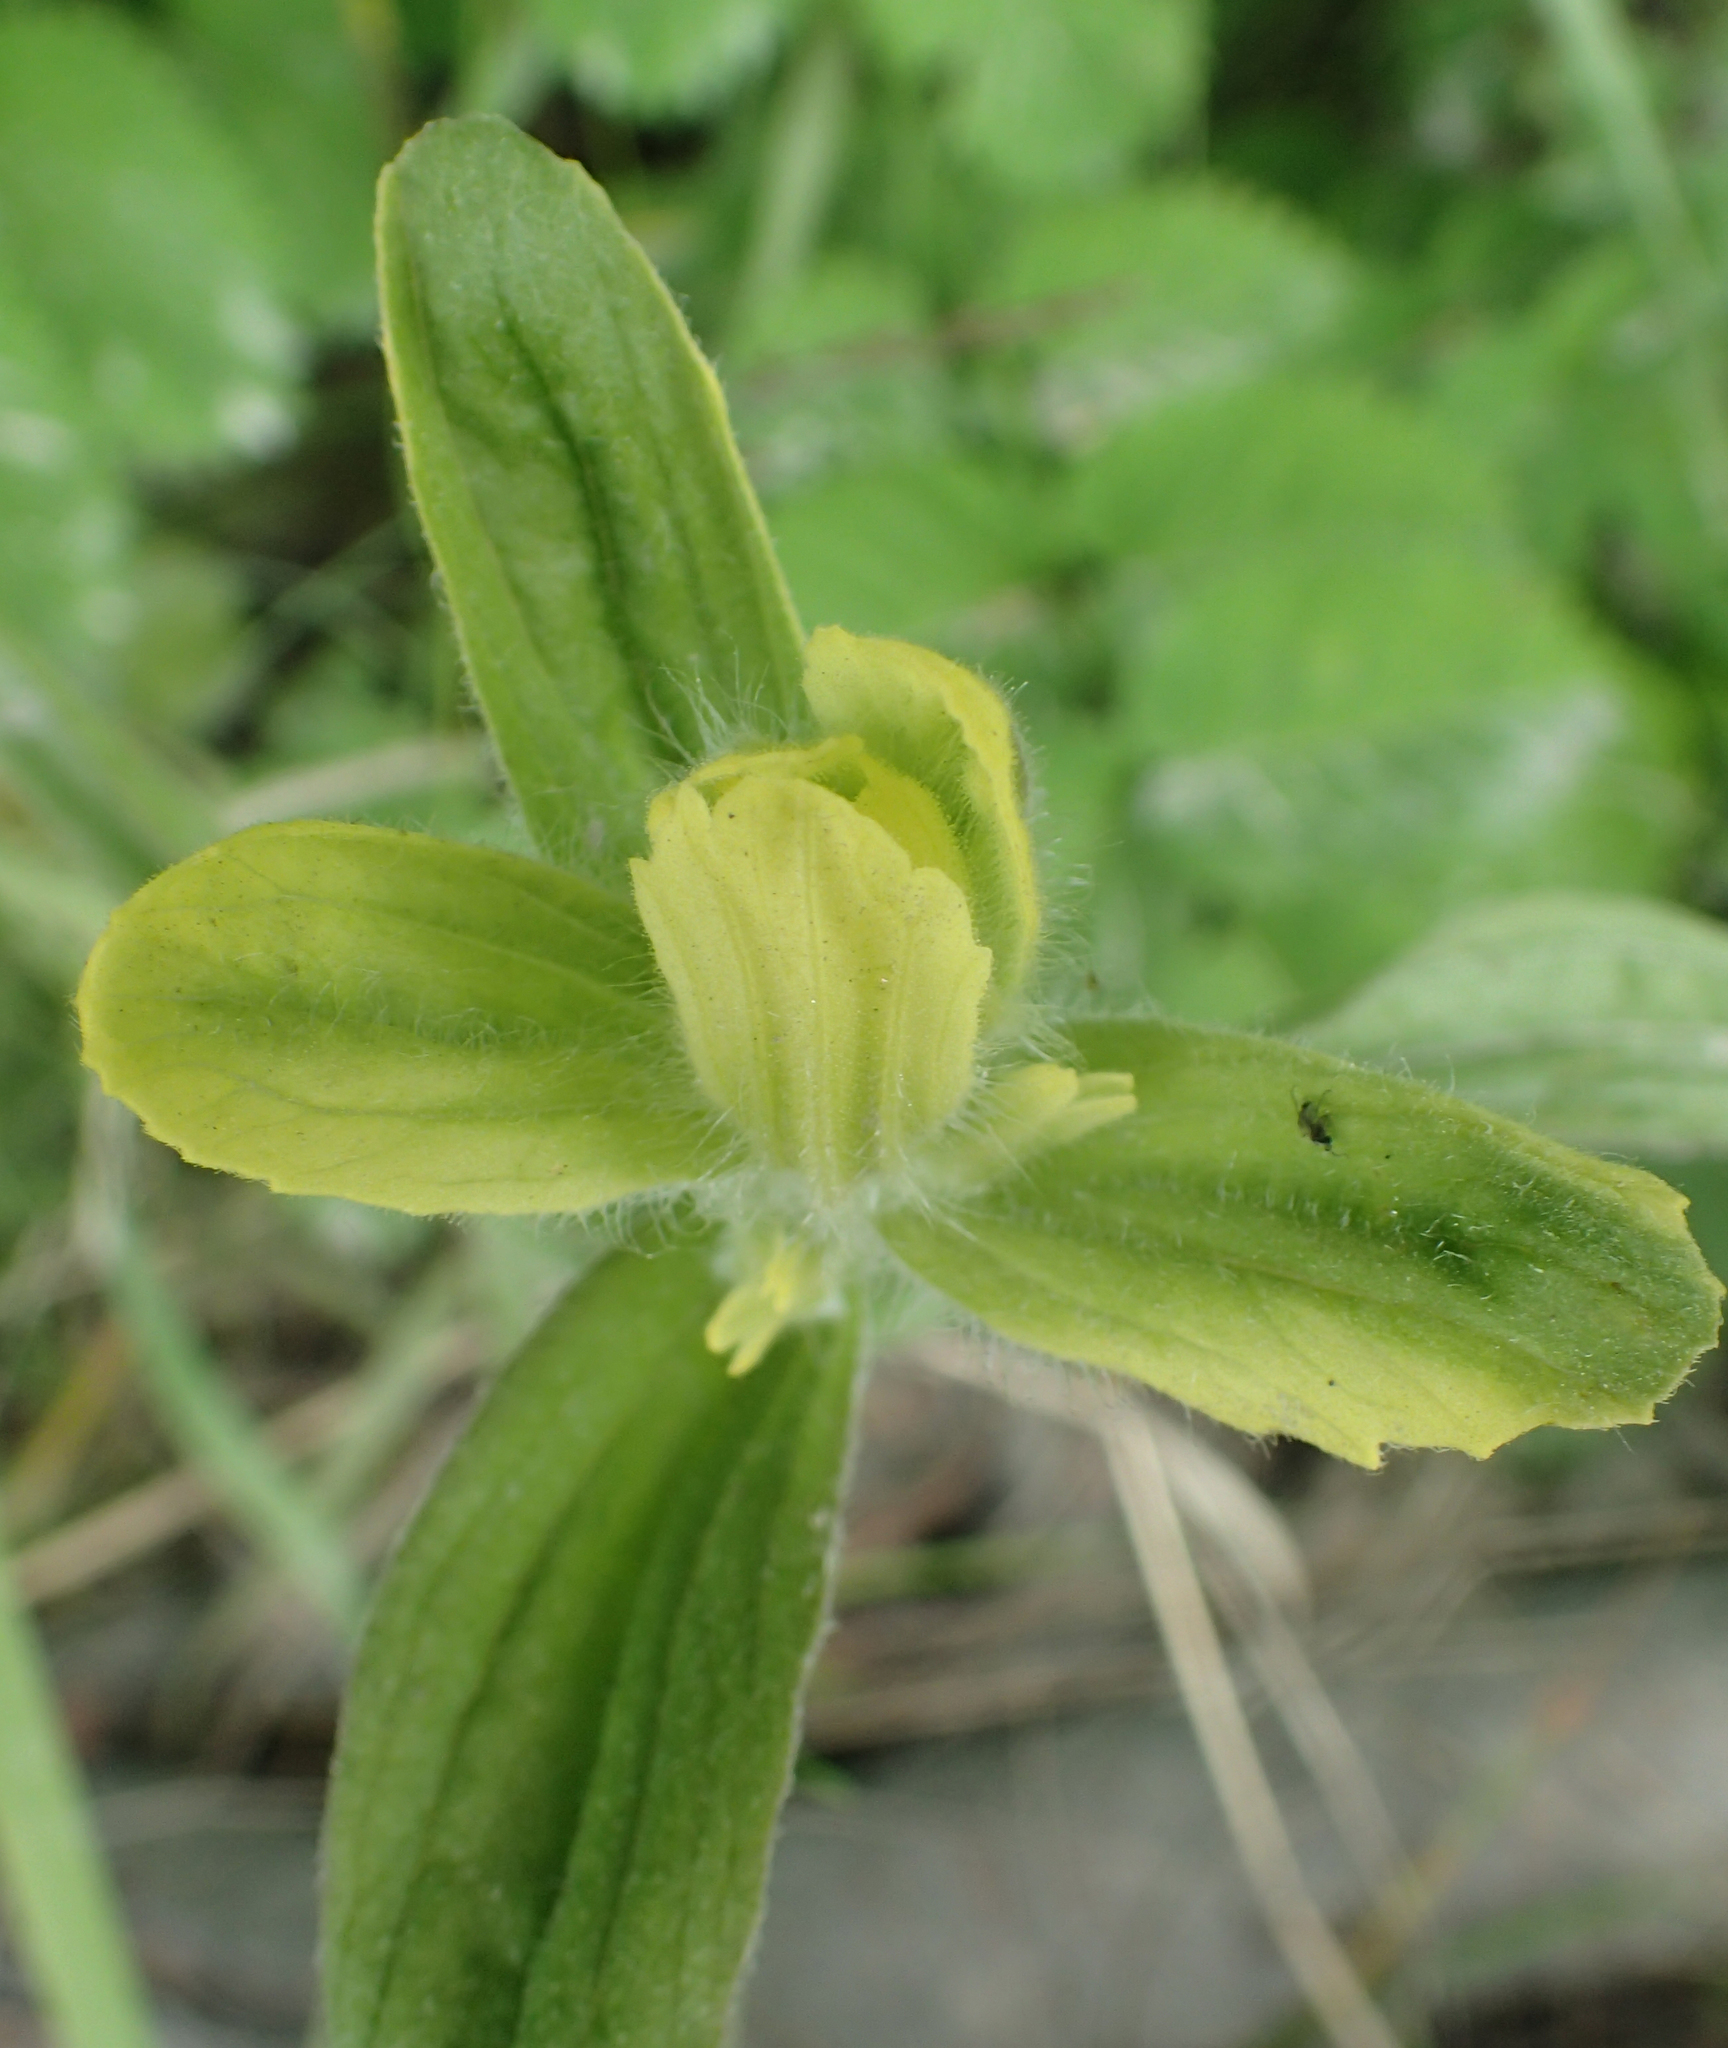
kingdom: Plantae
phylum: Tracheophyta
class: Magnoliopsida
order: Lamiales
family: Orobanchaceae
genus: Castilleja
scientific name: Castilleja unalaschcensis
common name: Unalaska paintbrush
